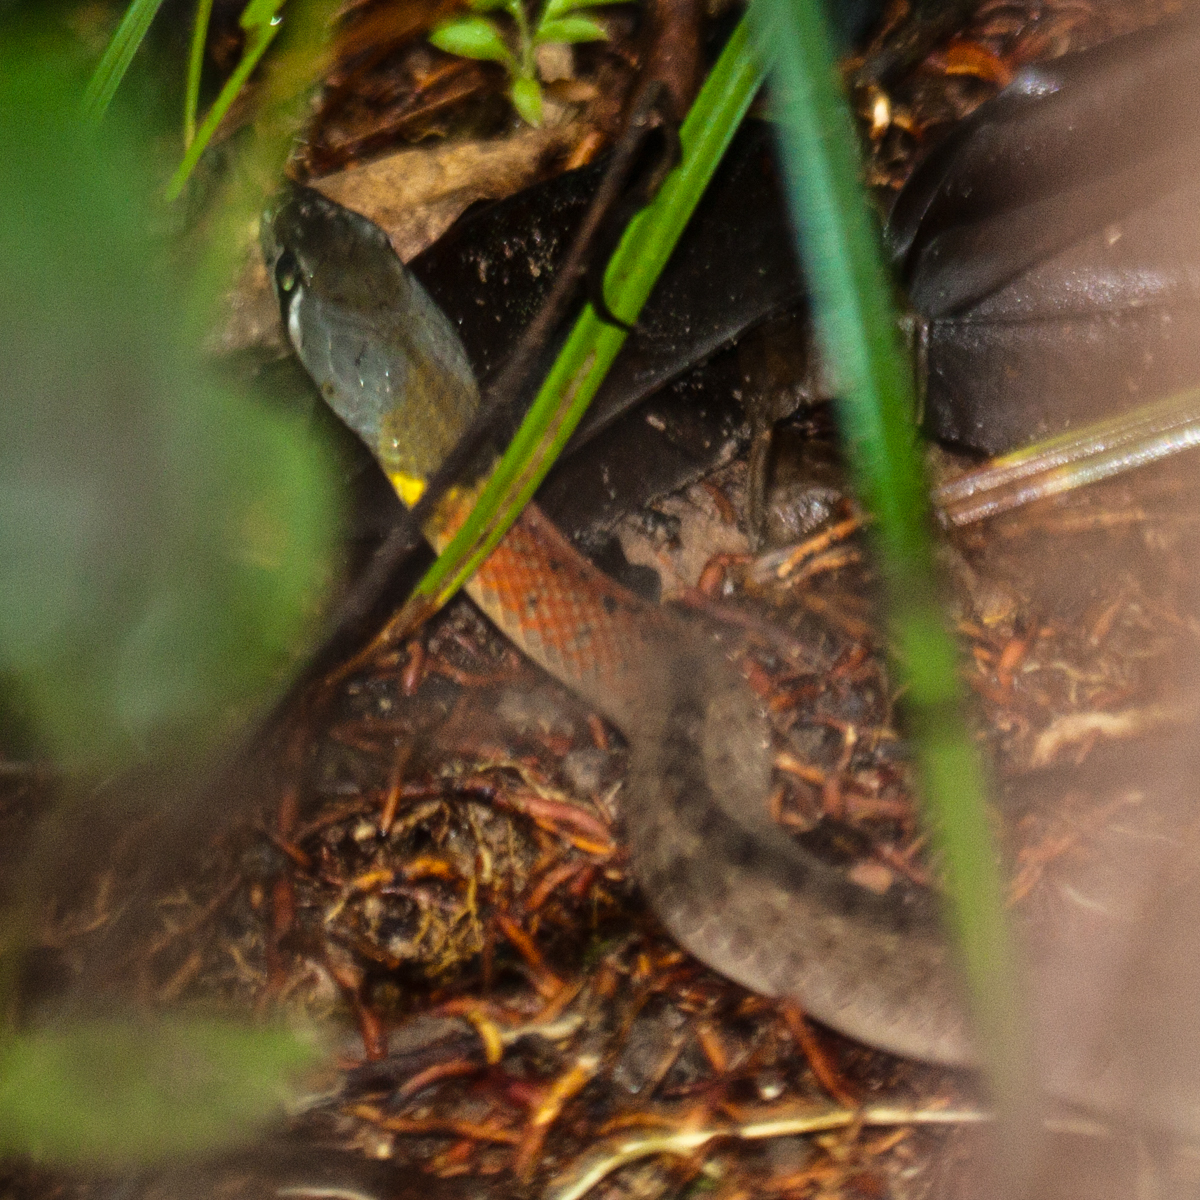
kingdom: Animalia
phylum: Chordata
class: Squamata
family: Colubridae
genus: Rhabdophis
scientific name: Rhabdophis
